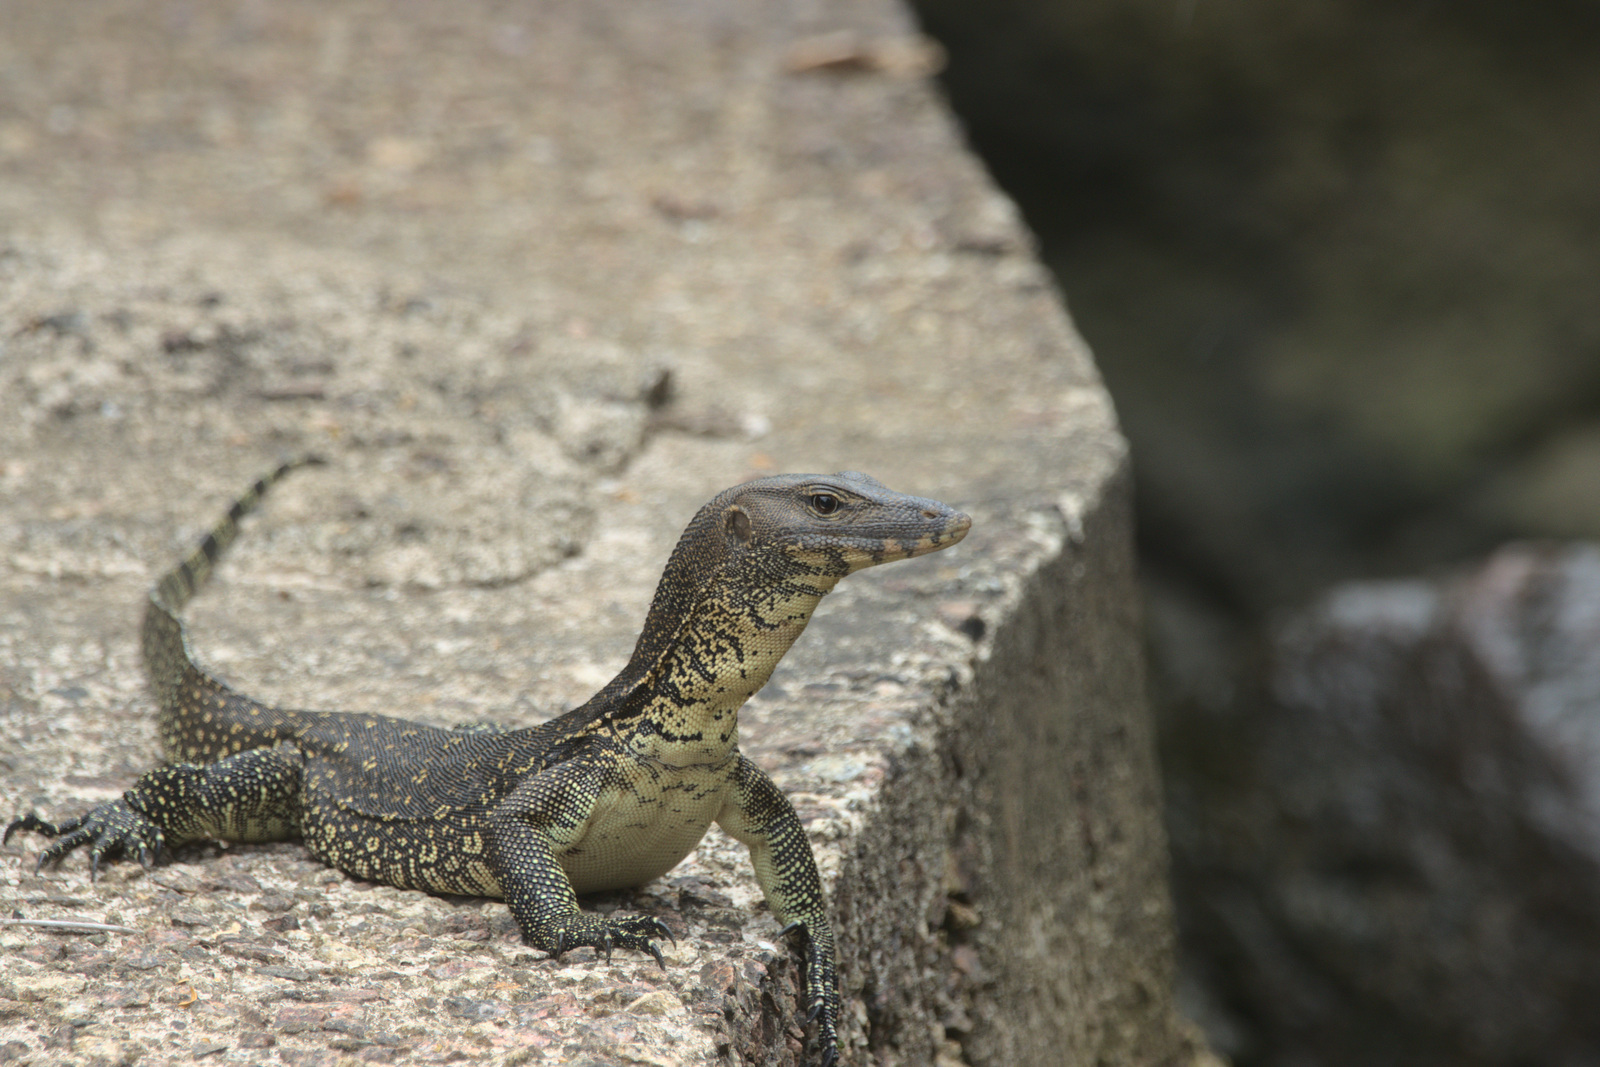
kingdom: Animalia
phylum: Chordata
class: Squamata
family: Varanidae
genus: Varanus
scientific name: Varanus salvator
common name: Common water monitor
